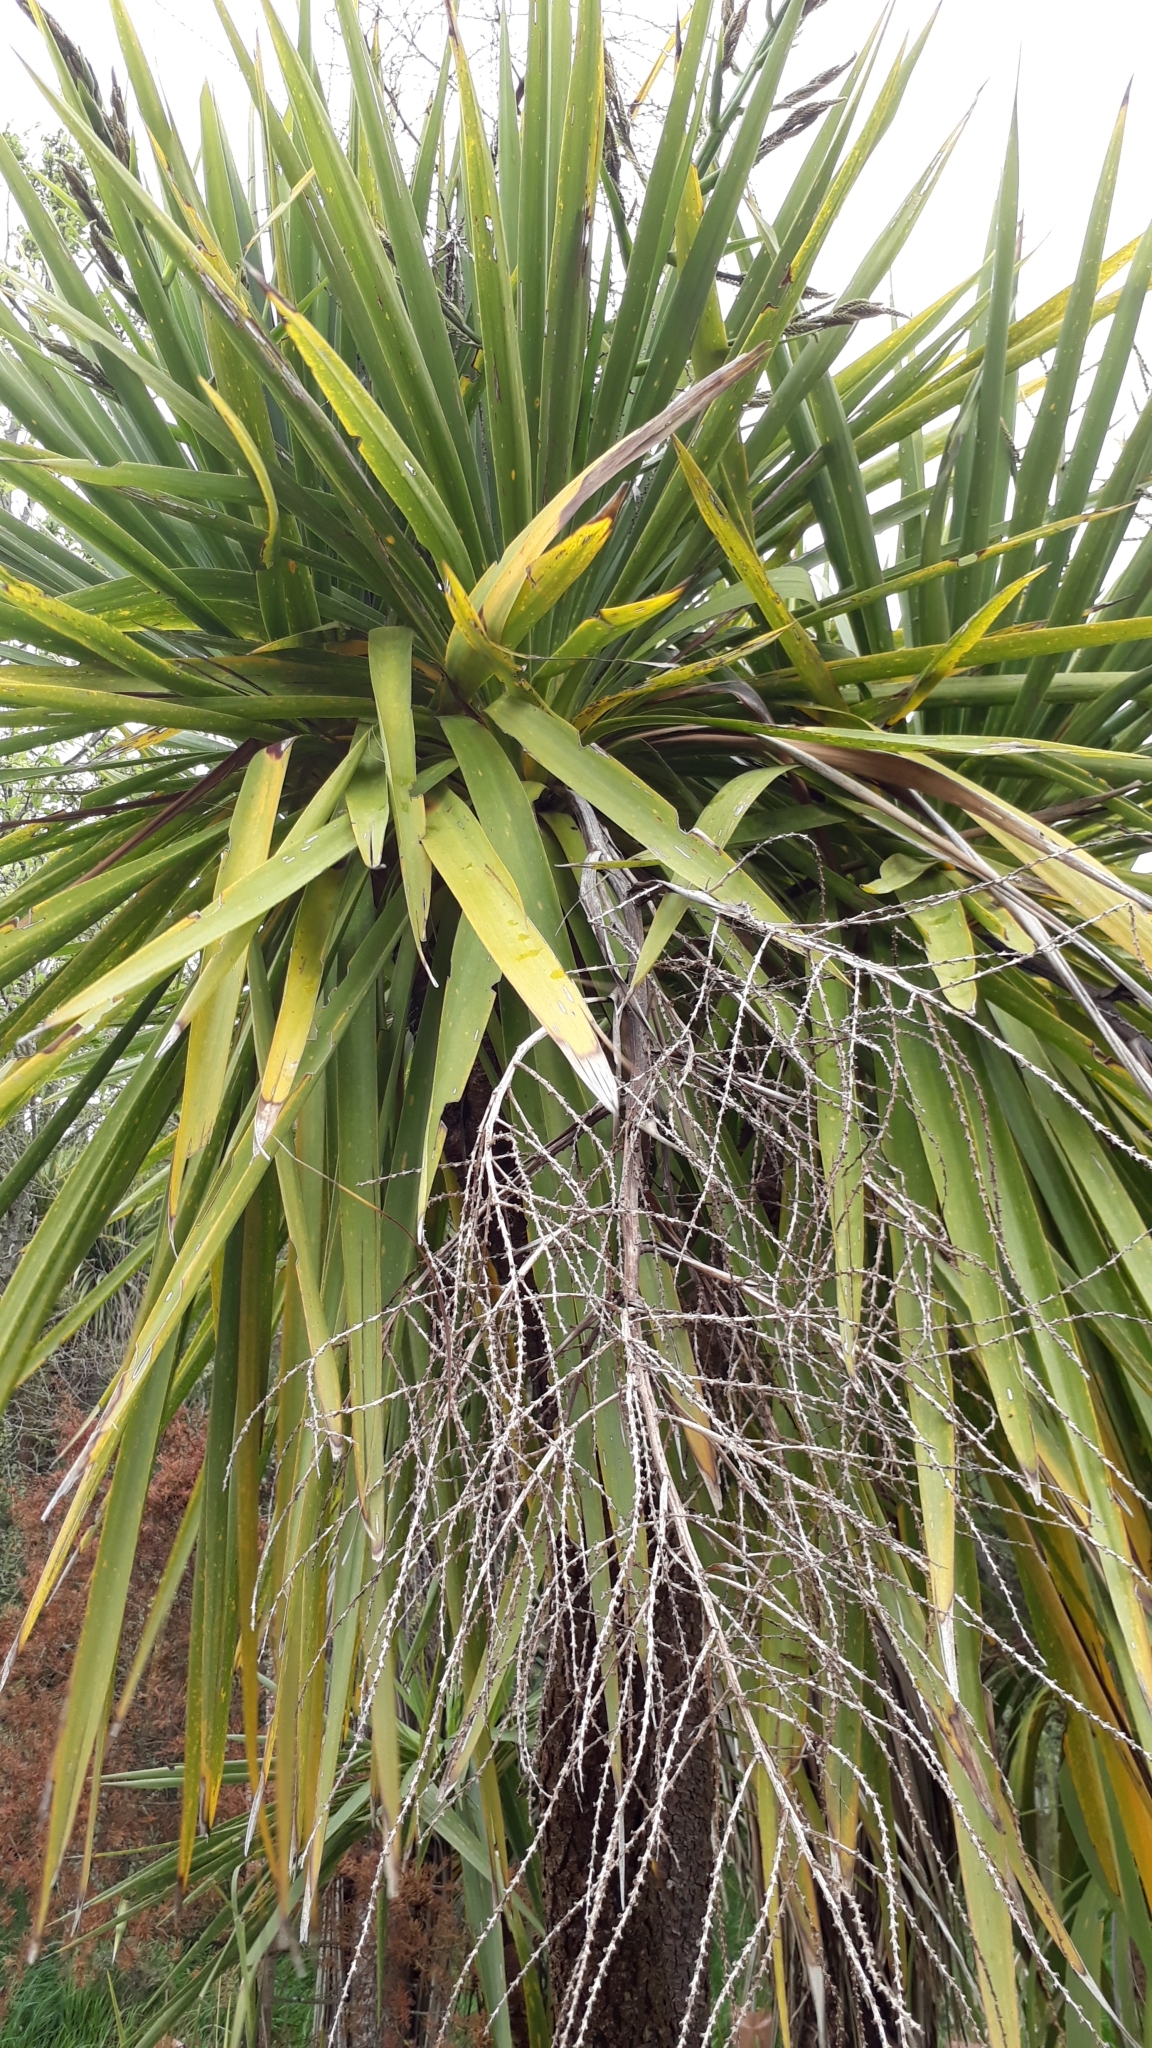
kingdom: Plantae
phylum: Tracheophyta
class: Liliopsida
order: Asparagales
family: Asparagaceae
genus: Cordyline
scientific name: Cordyline australis
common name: Cabbage-palm
